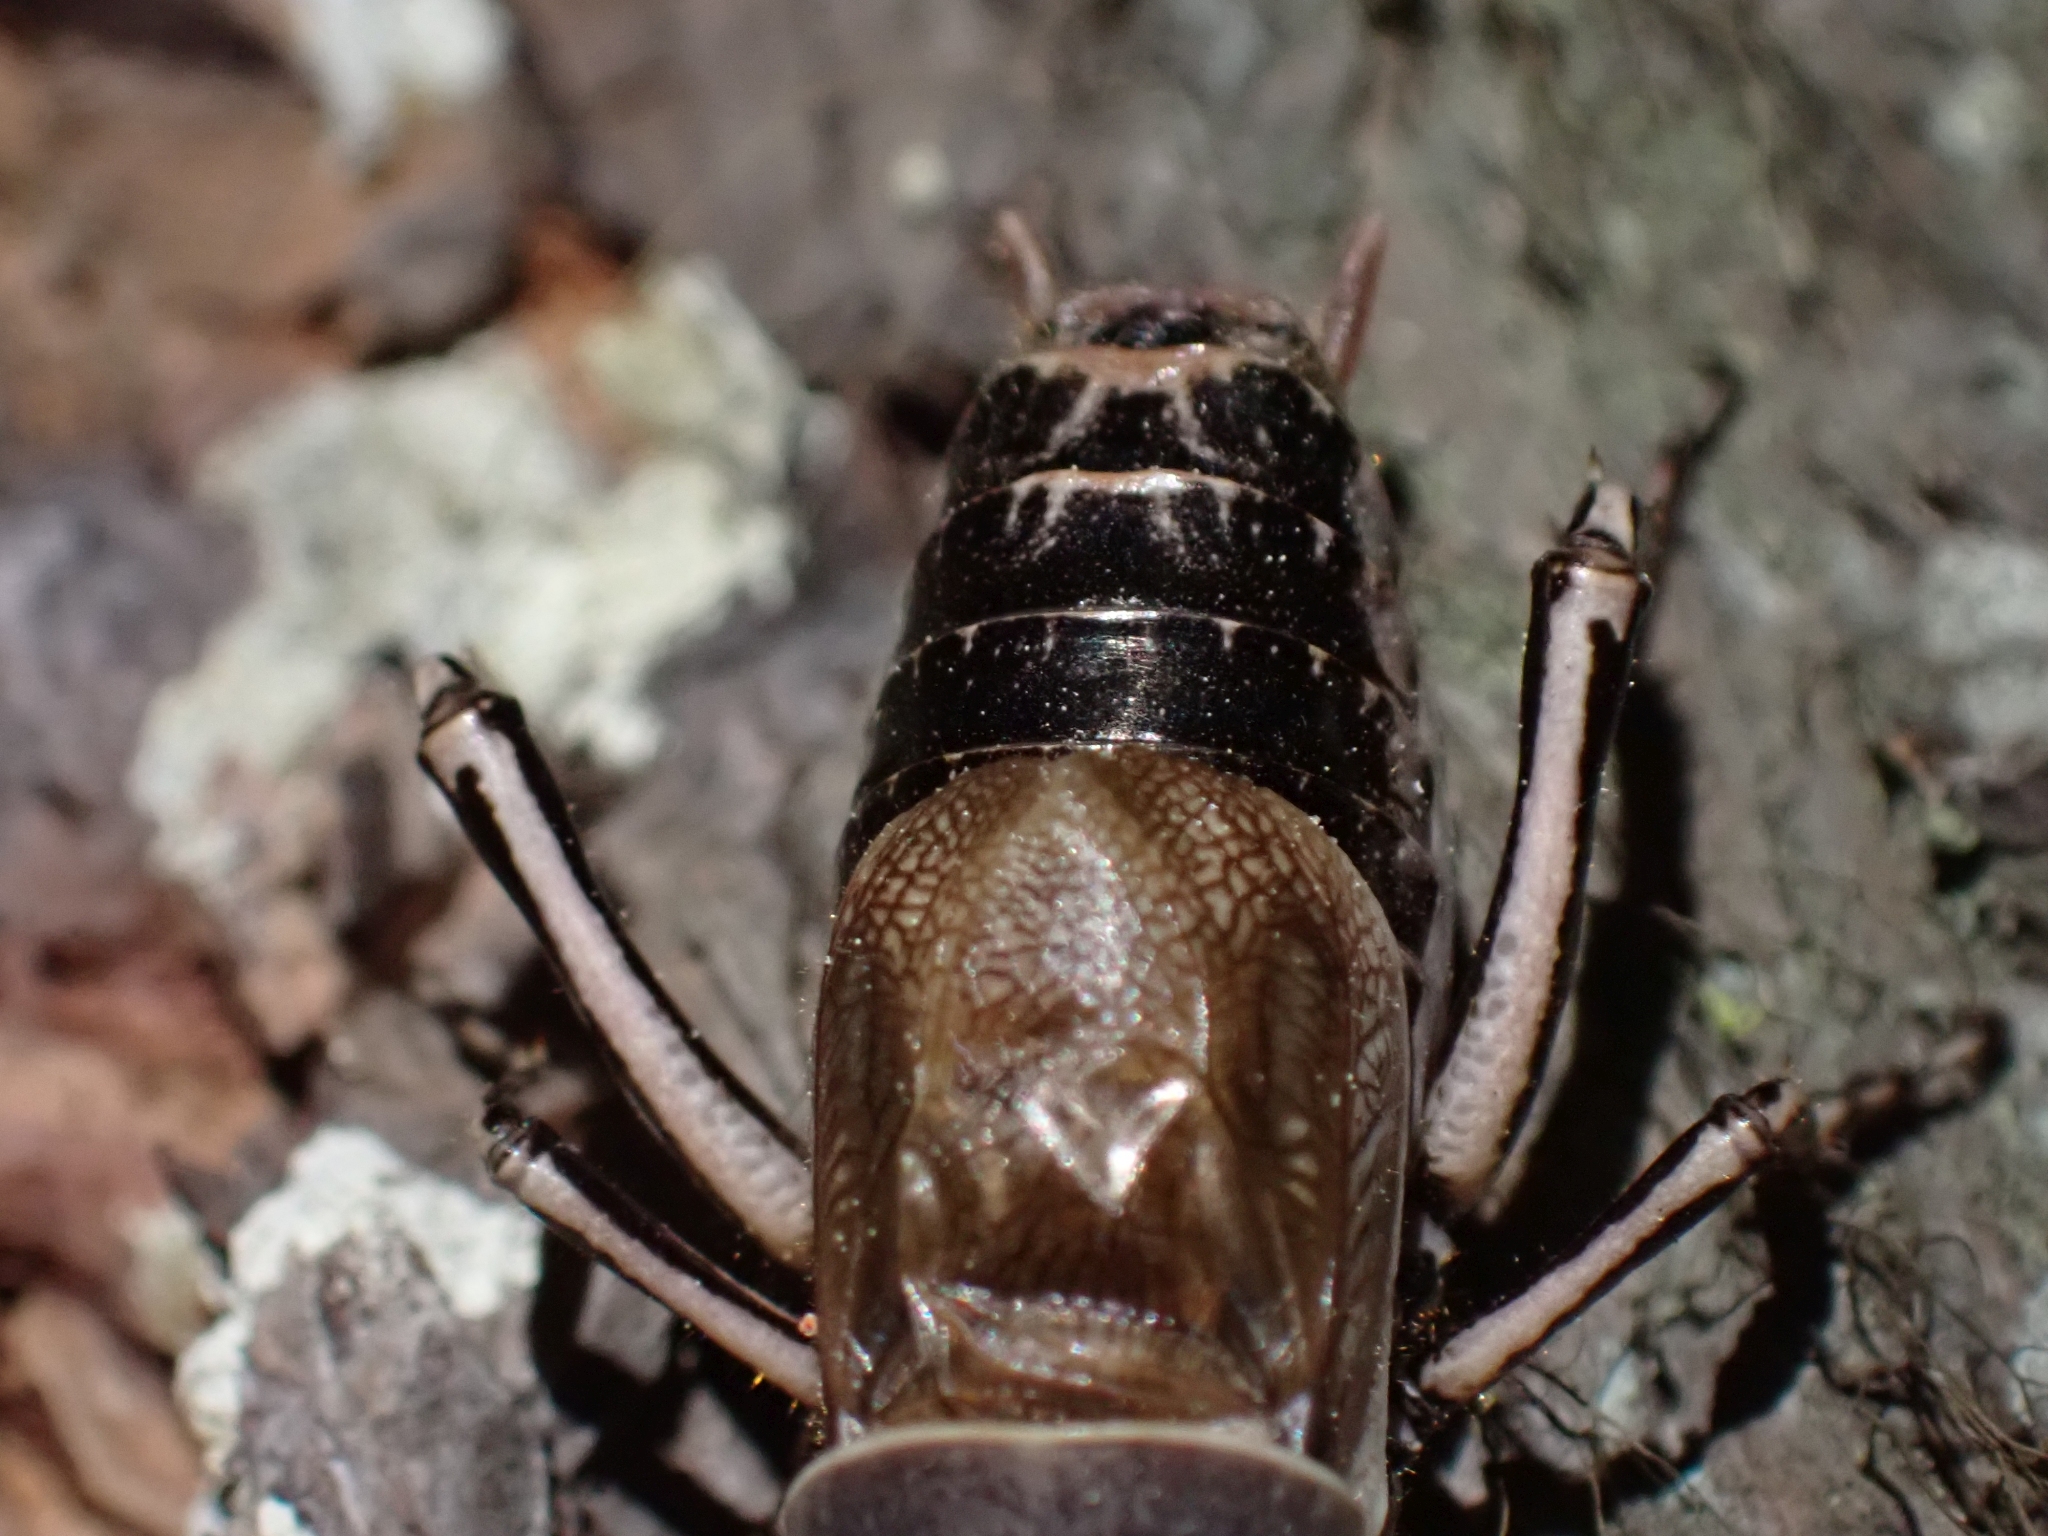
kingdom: Animalia
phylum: Arthropoda
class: Insecta
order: Orthoptera
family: Prophalangopsidae
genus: Cyphoderris
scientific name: Cyphoderris monstrosa
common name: Great grig
